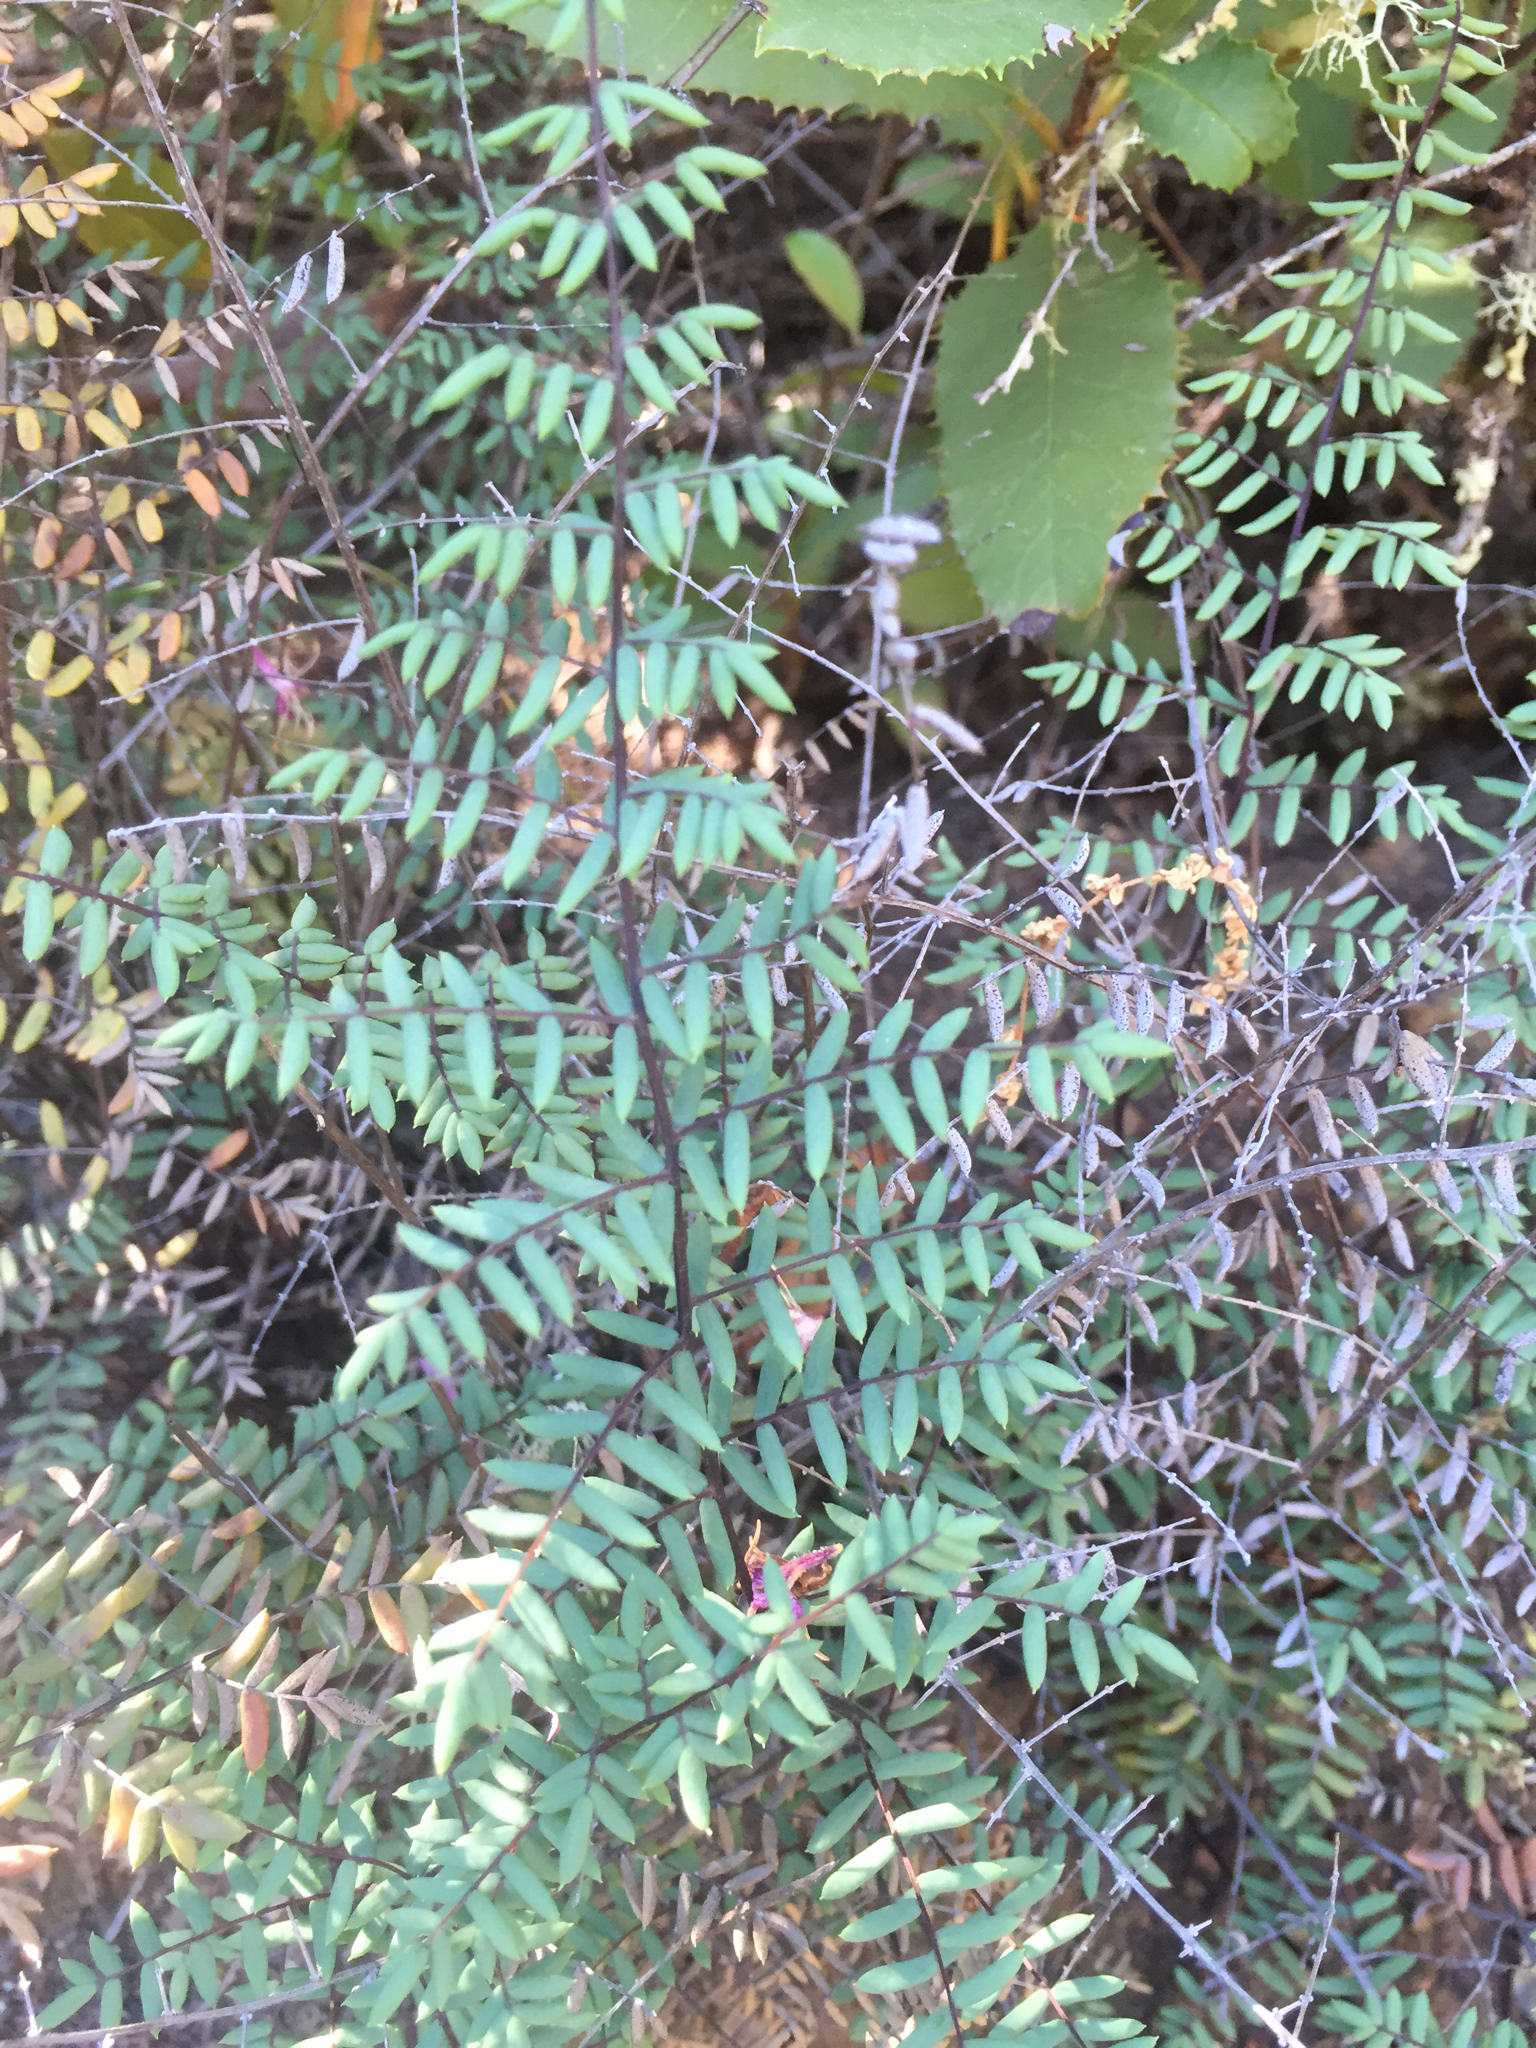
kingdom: Plantae
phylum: Tracheophyta
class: Polypodiopsida
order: Polypodiales
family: Pteridaceae
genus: Pellaea
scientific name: Pellaea mucronata
